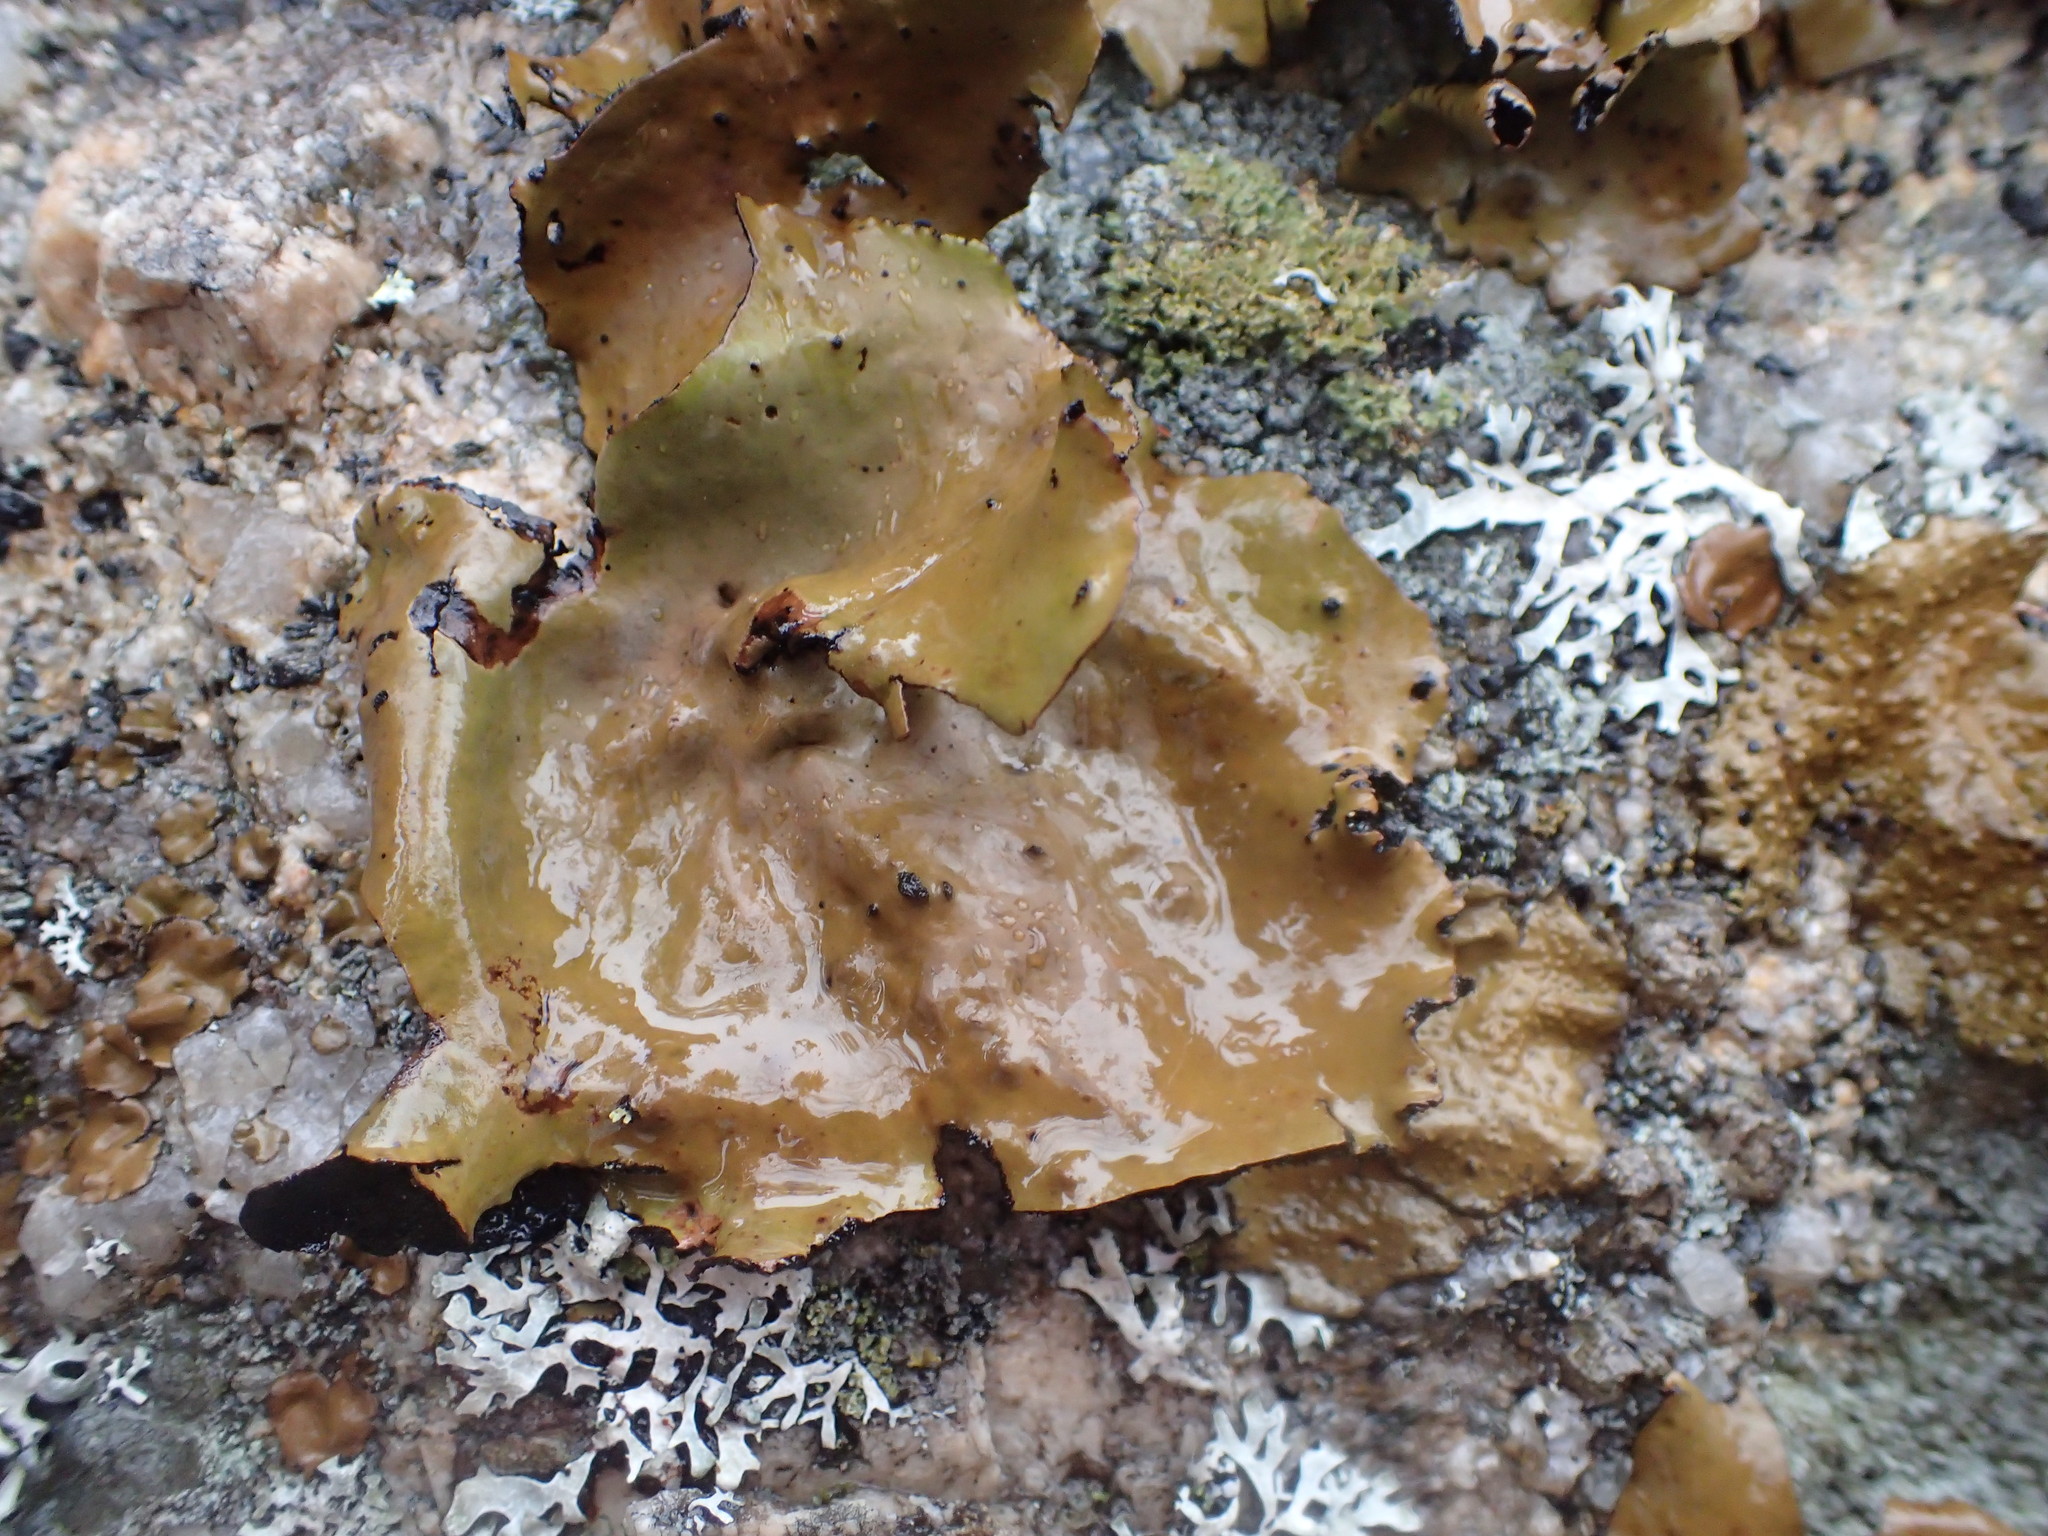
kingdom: Fungi
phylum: Ascomycota
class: Lecanoromycetes
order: Umbilicariales
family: Umbilicariaceae
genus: Umbilicaria
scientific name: Umbilicaria mammulata
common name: Smooth rock tripe
